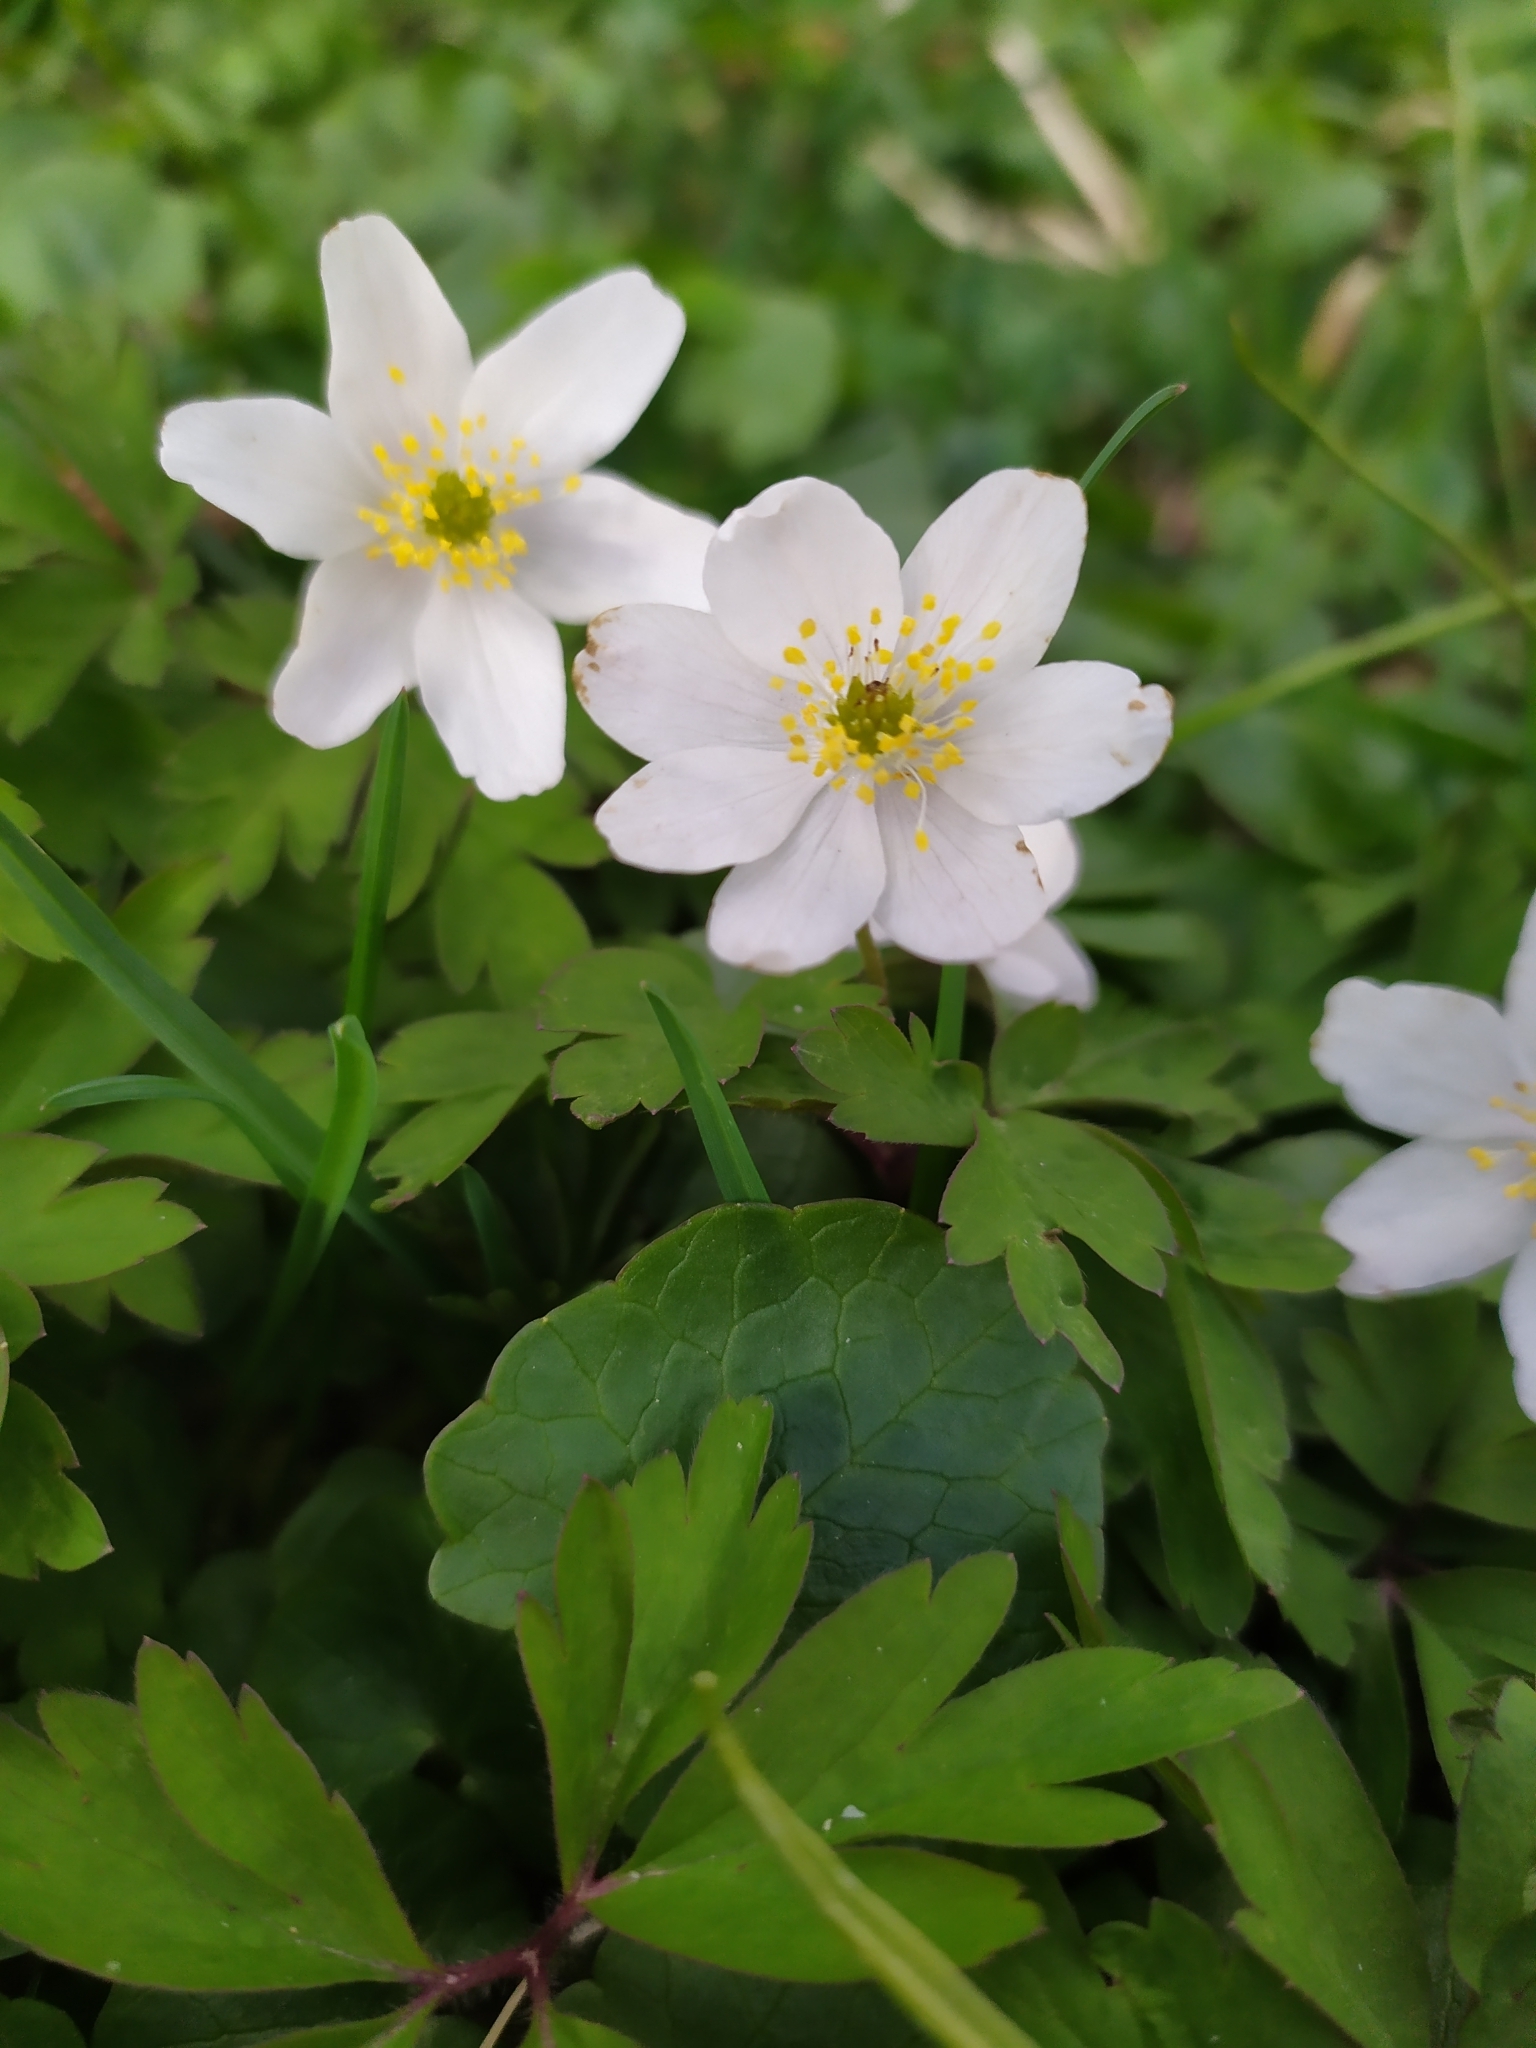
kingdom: Plantae
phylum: Tracheophyta
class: Magnoliopsida
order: Ranunculales
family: Ranunculaceae
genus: Anemone
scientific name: Anemone nemorosa
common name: Wood anemone
